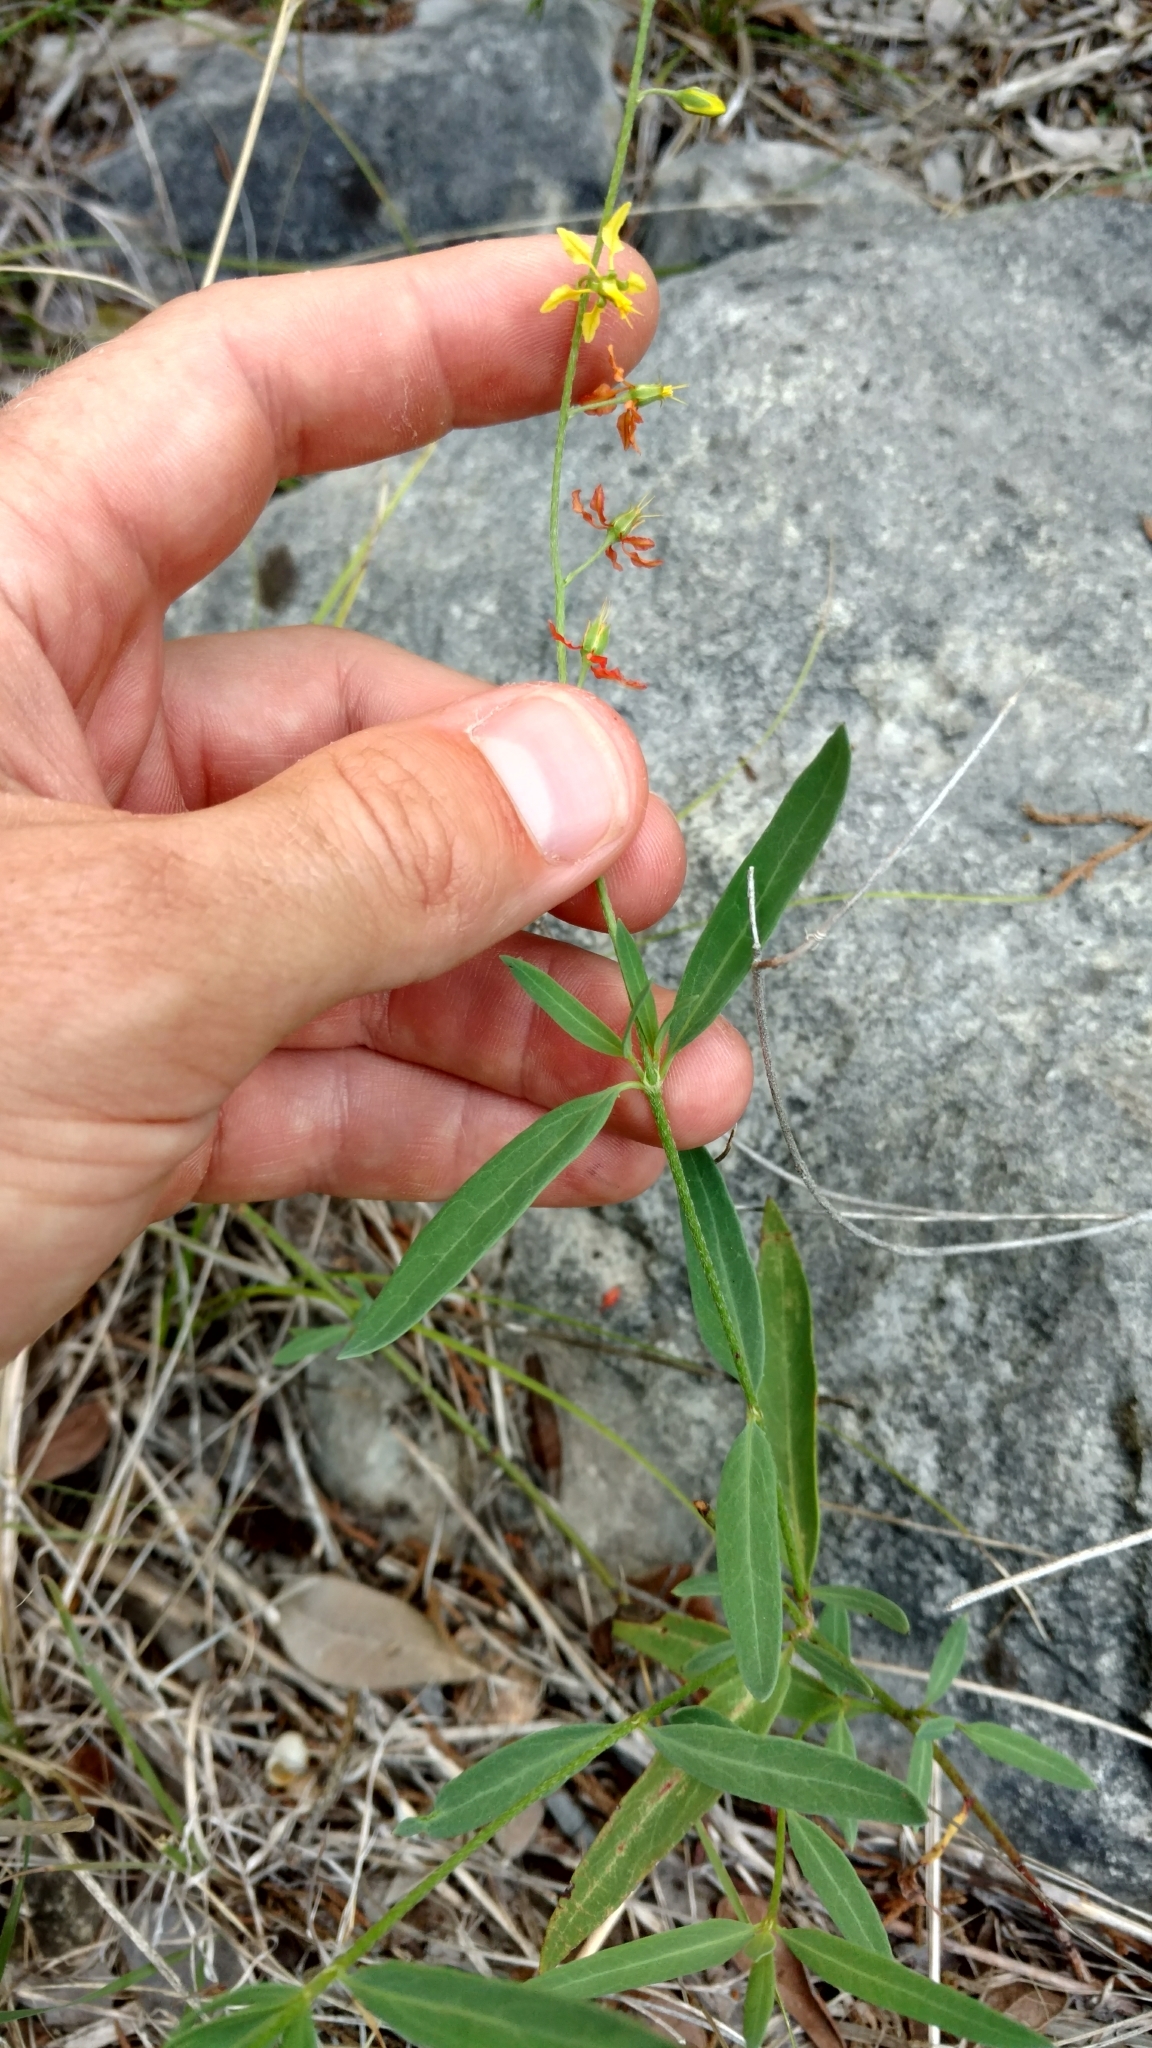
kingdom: Plantae
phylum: Tracheophyta
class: Magnoliopsida
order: Malpighiales
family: Malpighiaceae
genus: Galphimia
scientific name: Galphimia angustifolia
